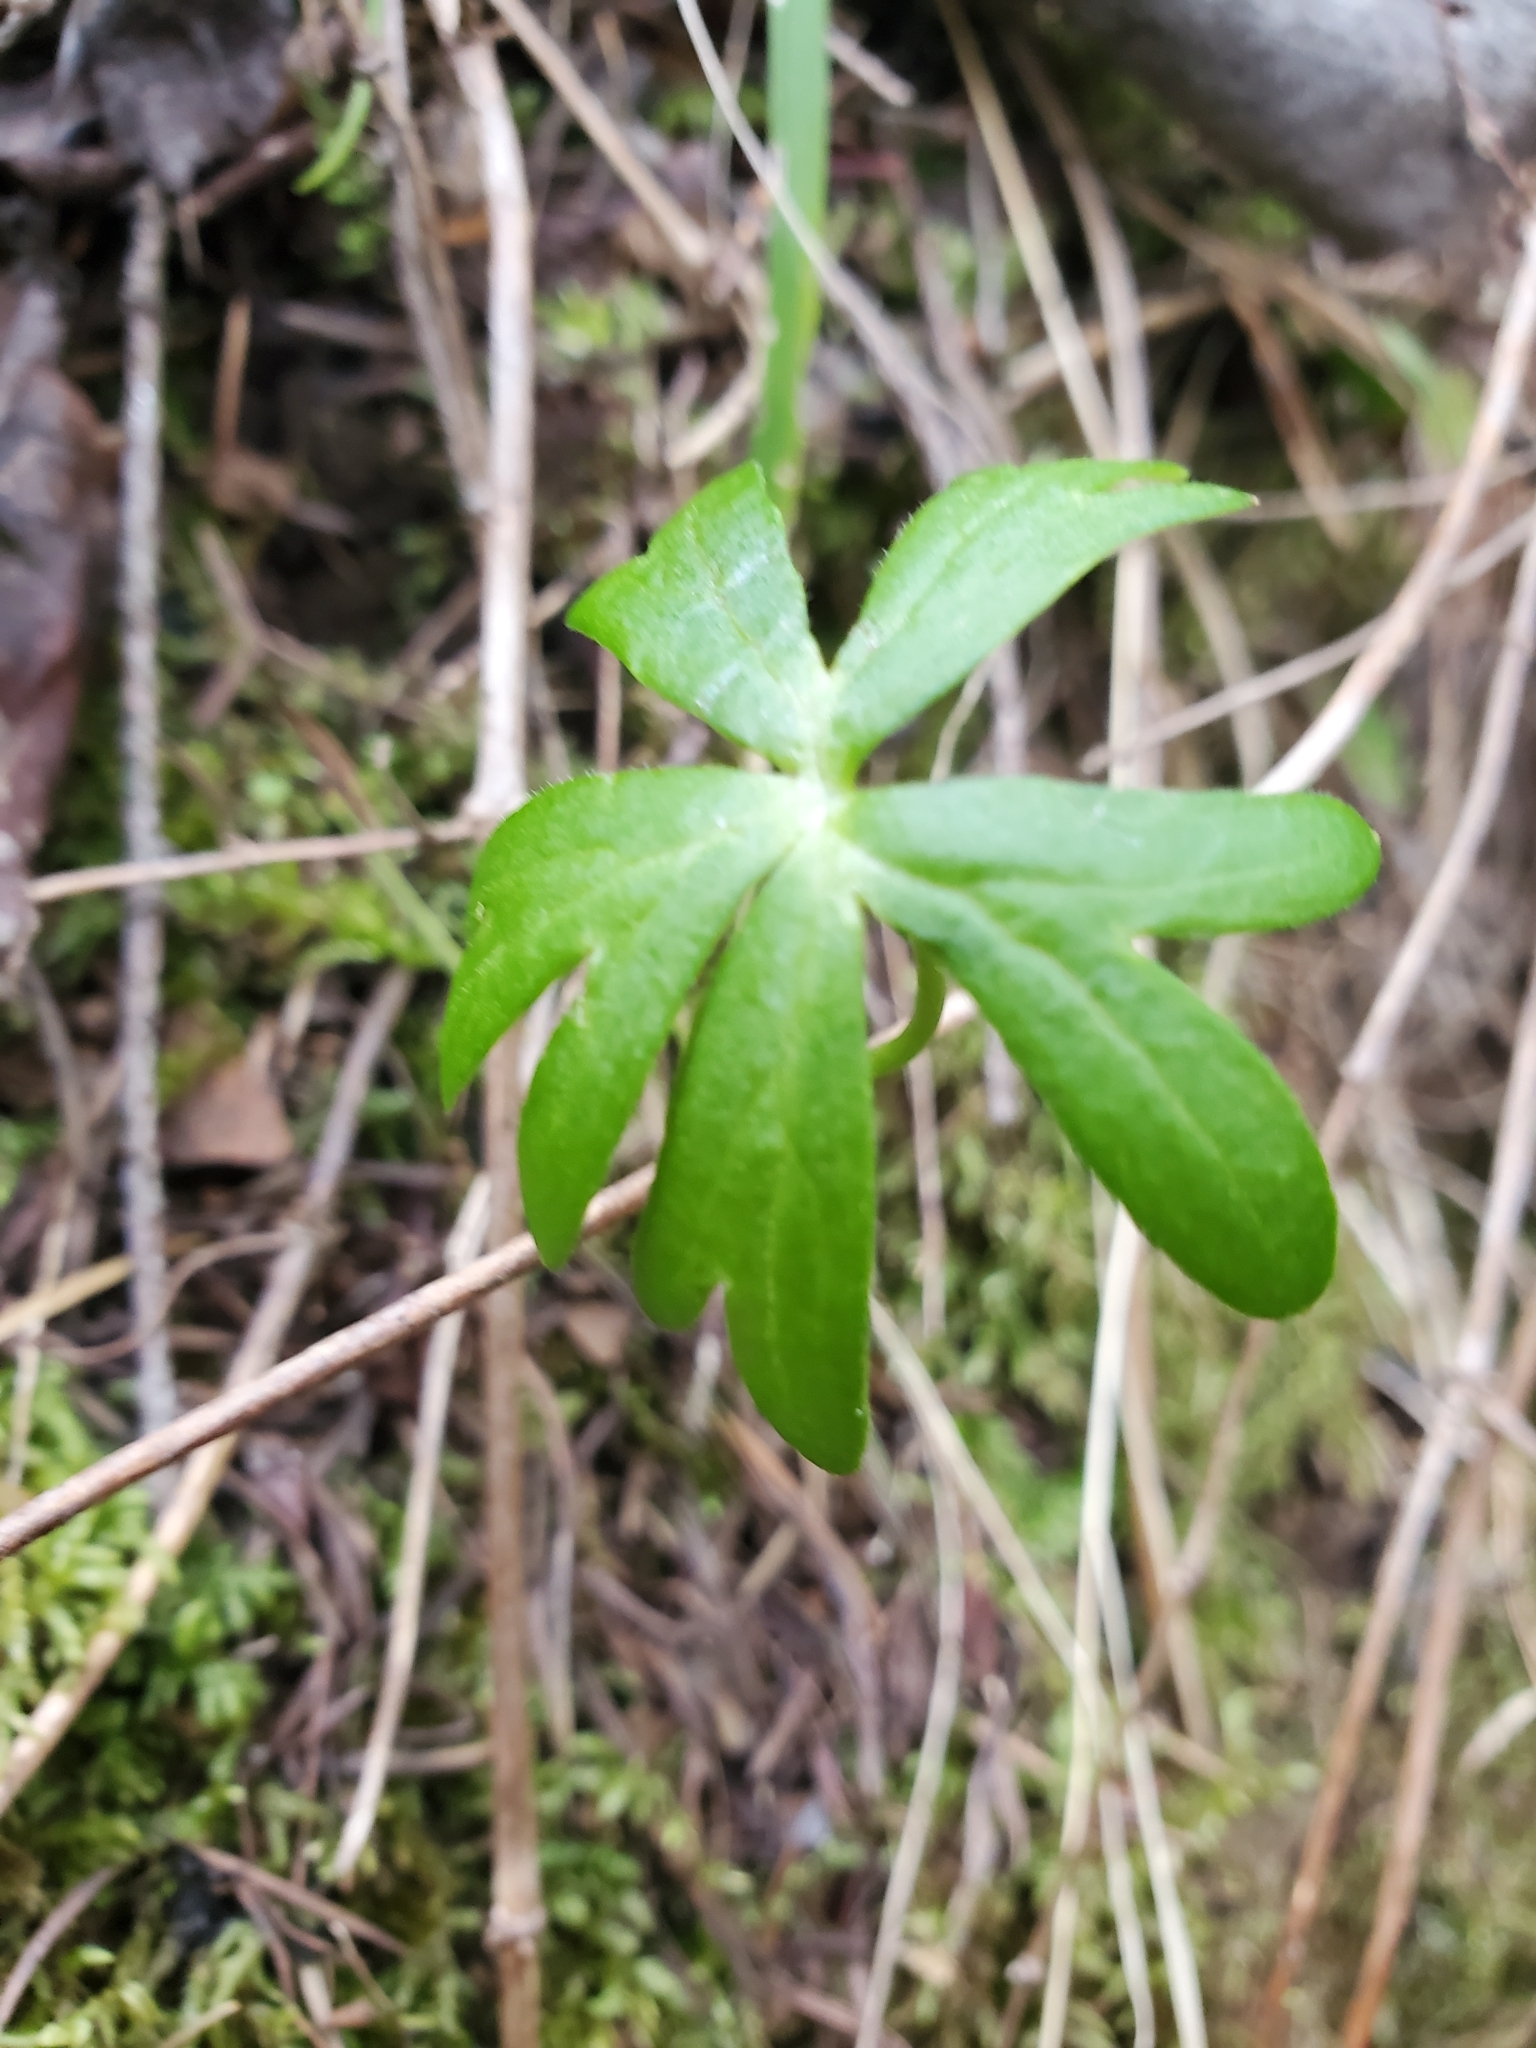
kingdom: Plantae
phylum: Tracheophyta
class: Magnoliopsida
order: Ranunculales
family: Ranunculaceae
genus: Delphinium
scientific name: Delphinium menziesii
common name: Menzies's larkspur
